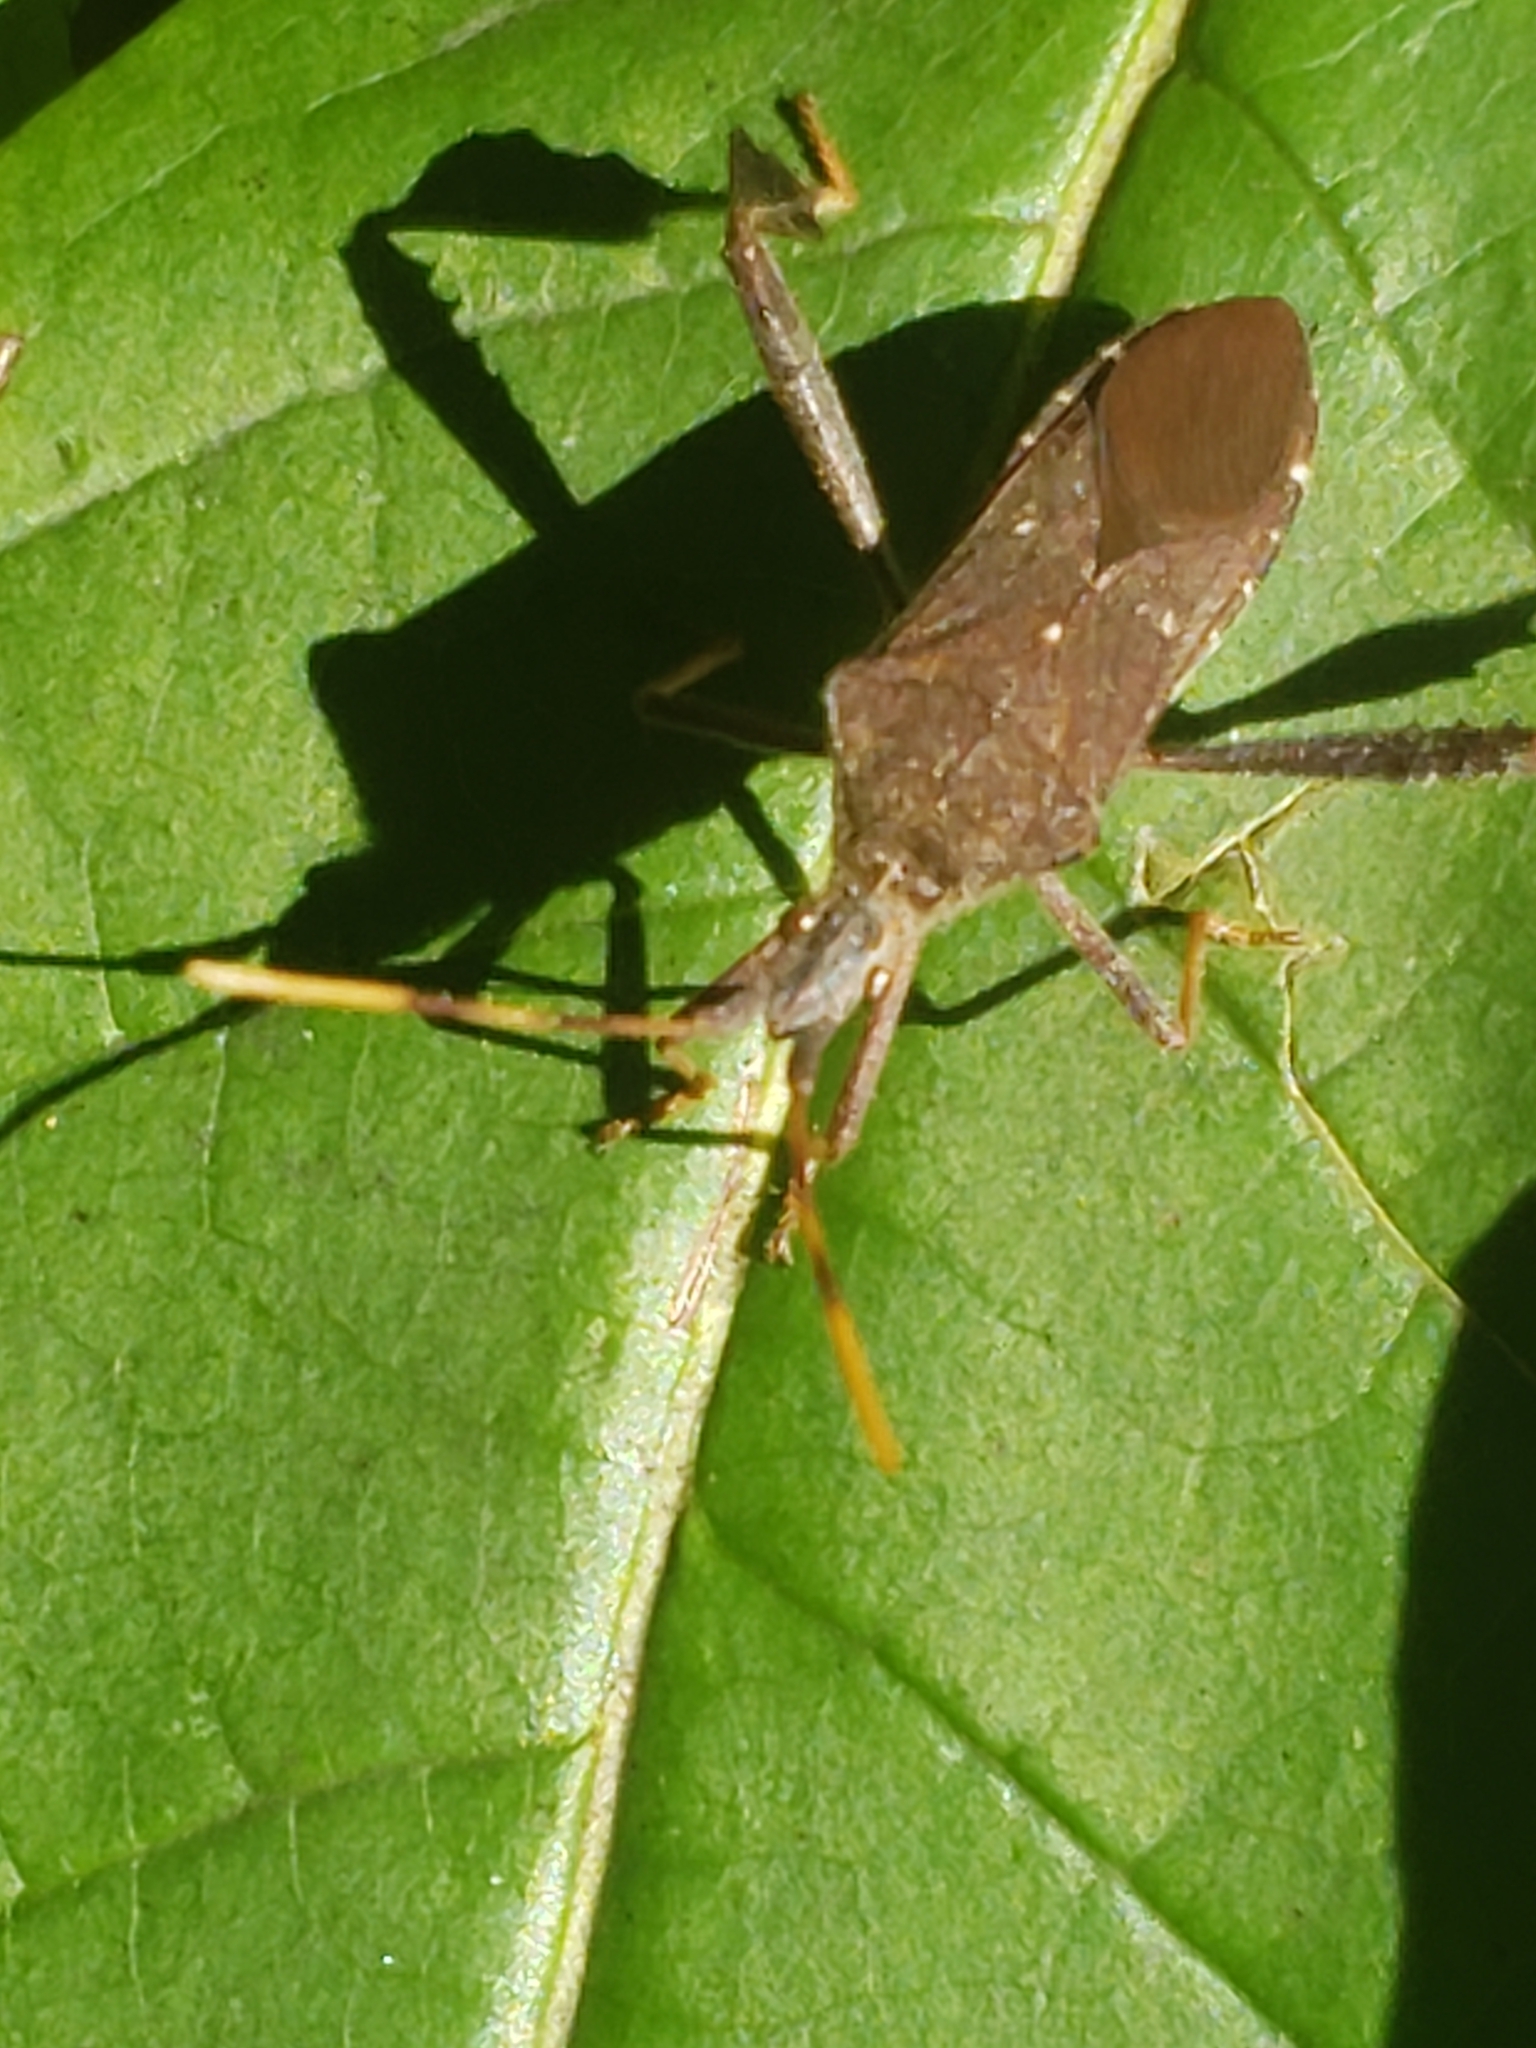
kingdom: Animalia
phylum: Arthropoda
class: Insecta
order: Hemiptera
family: Coreidae
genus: Leptoglossus
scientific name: Leptoglossus oppositus
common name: Northern leaf-footed bug
